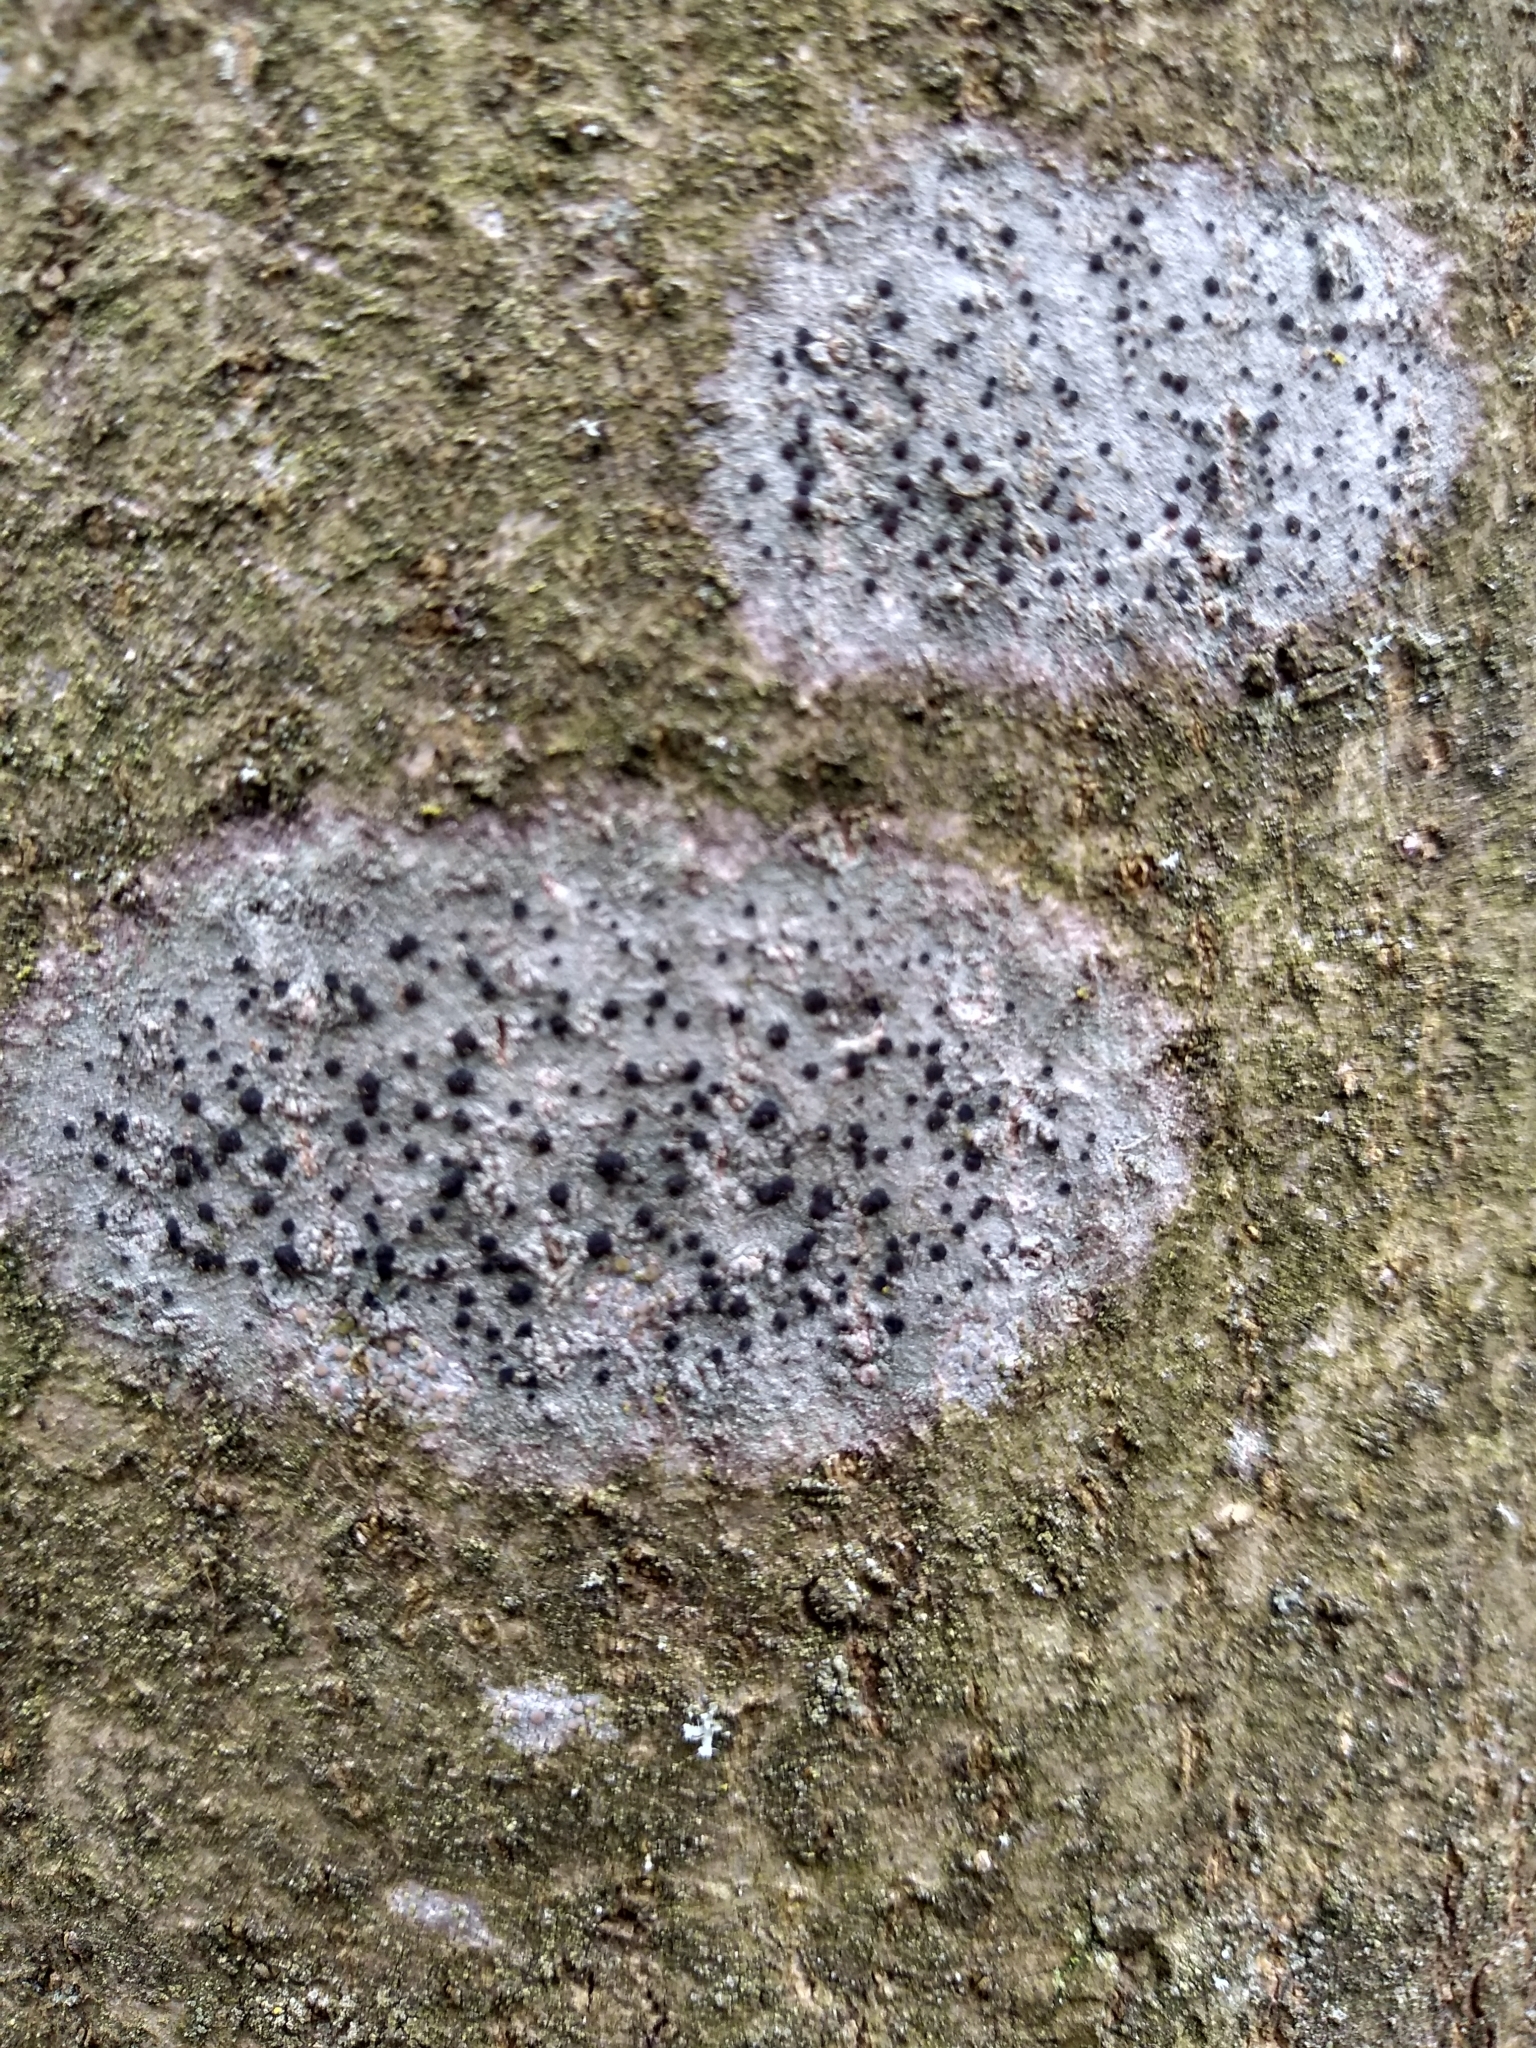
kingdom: Fungi
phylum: Ascomycota
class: Lecanoromycetes
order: Lecanorales
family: Lecanoraceae
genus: Lecidella
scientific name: Lecidella elaeochroma
